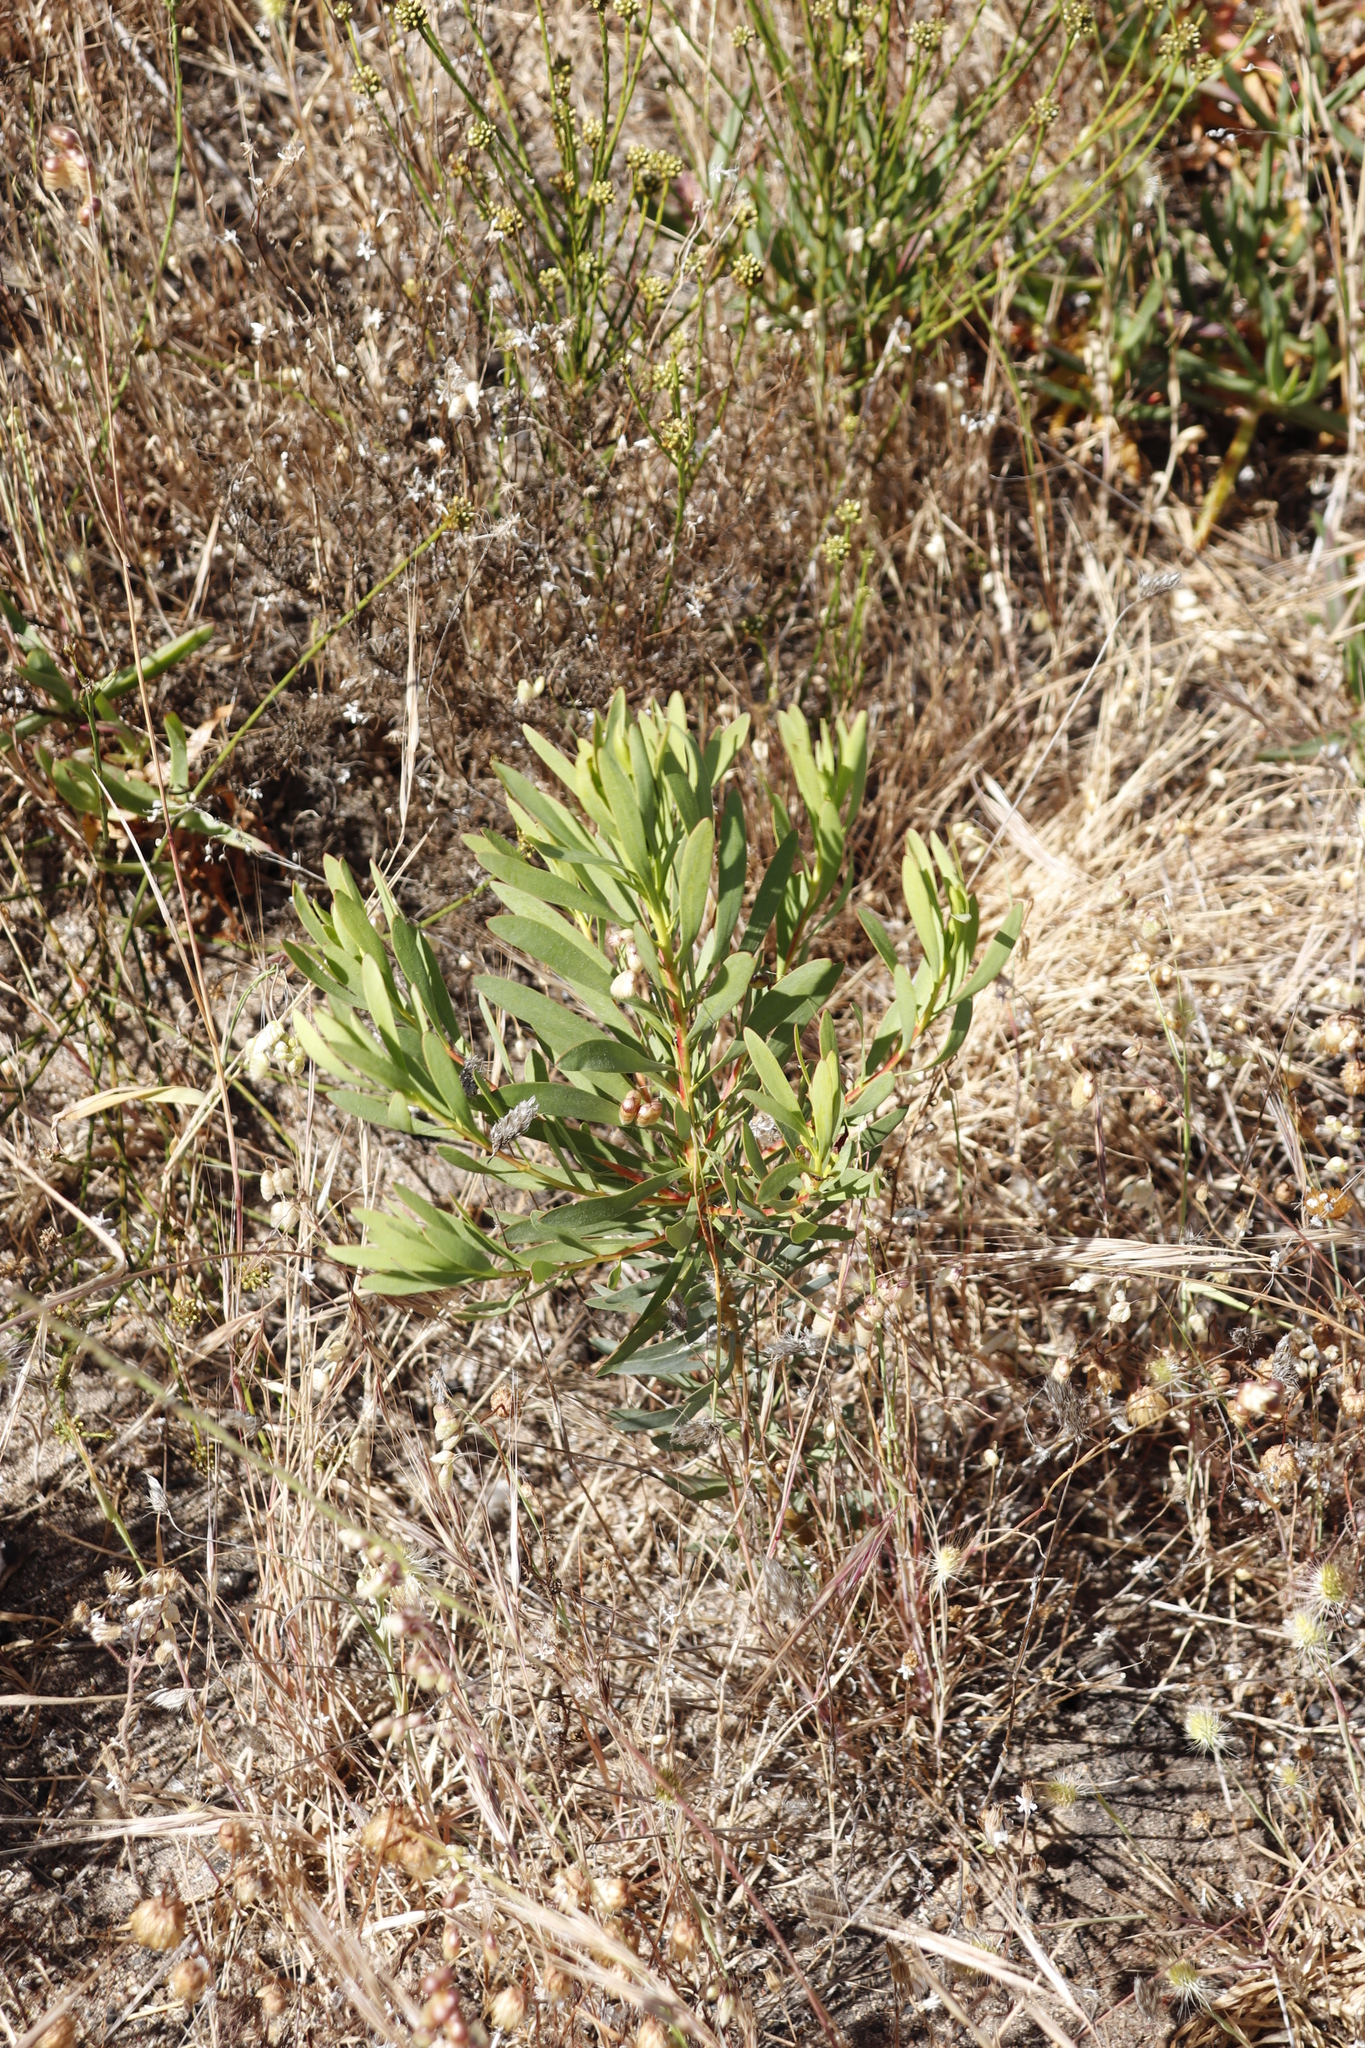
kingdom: Plantae
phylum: Tracheophyta
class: Magnoliopsida
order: Proteales
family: Proteaceae
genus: Protea
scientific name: Protea repens
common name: Sugarbush
